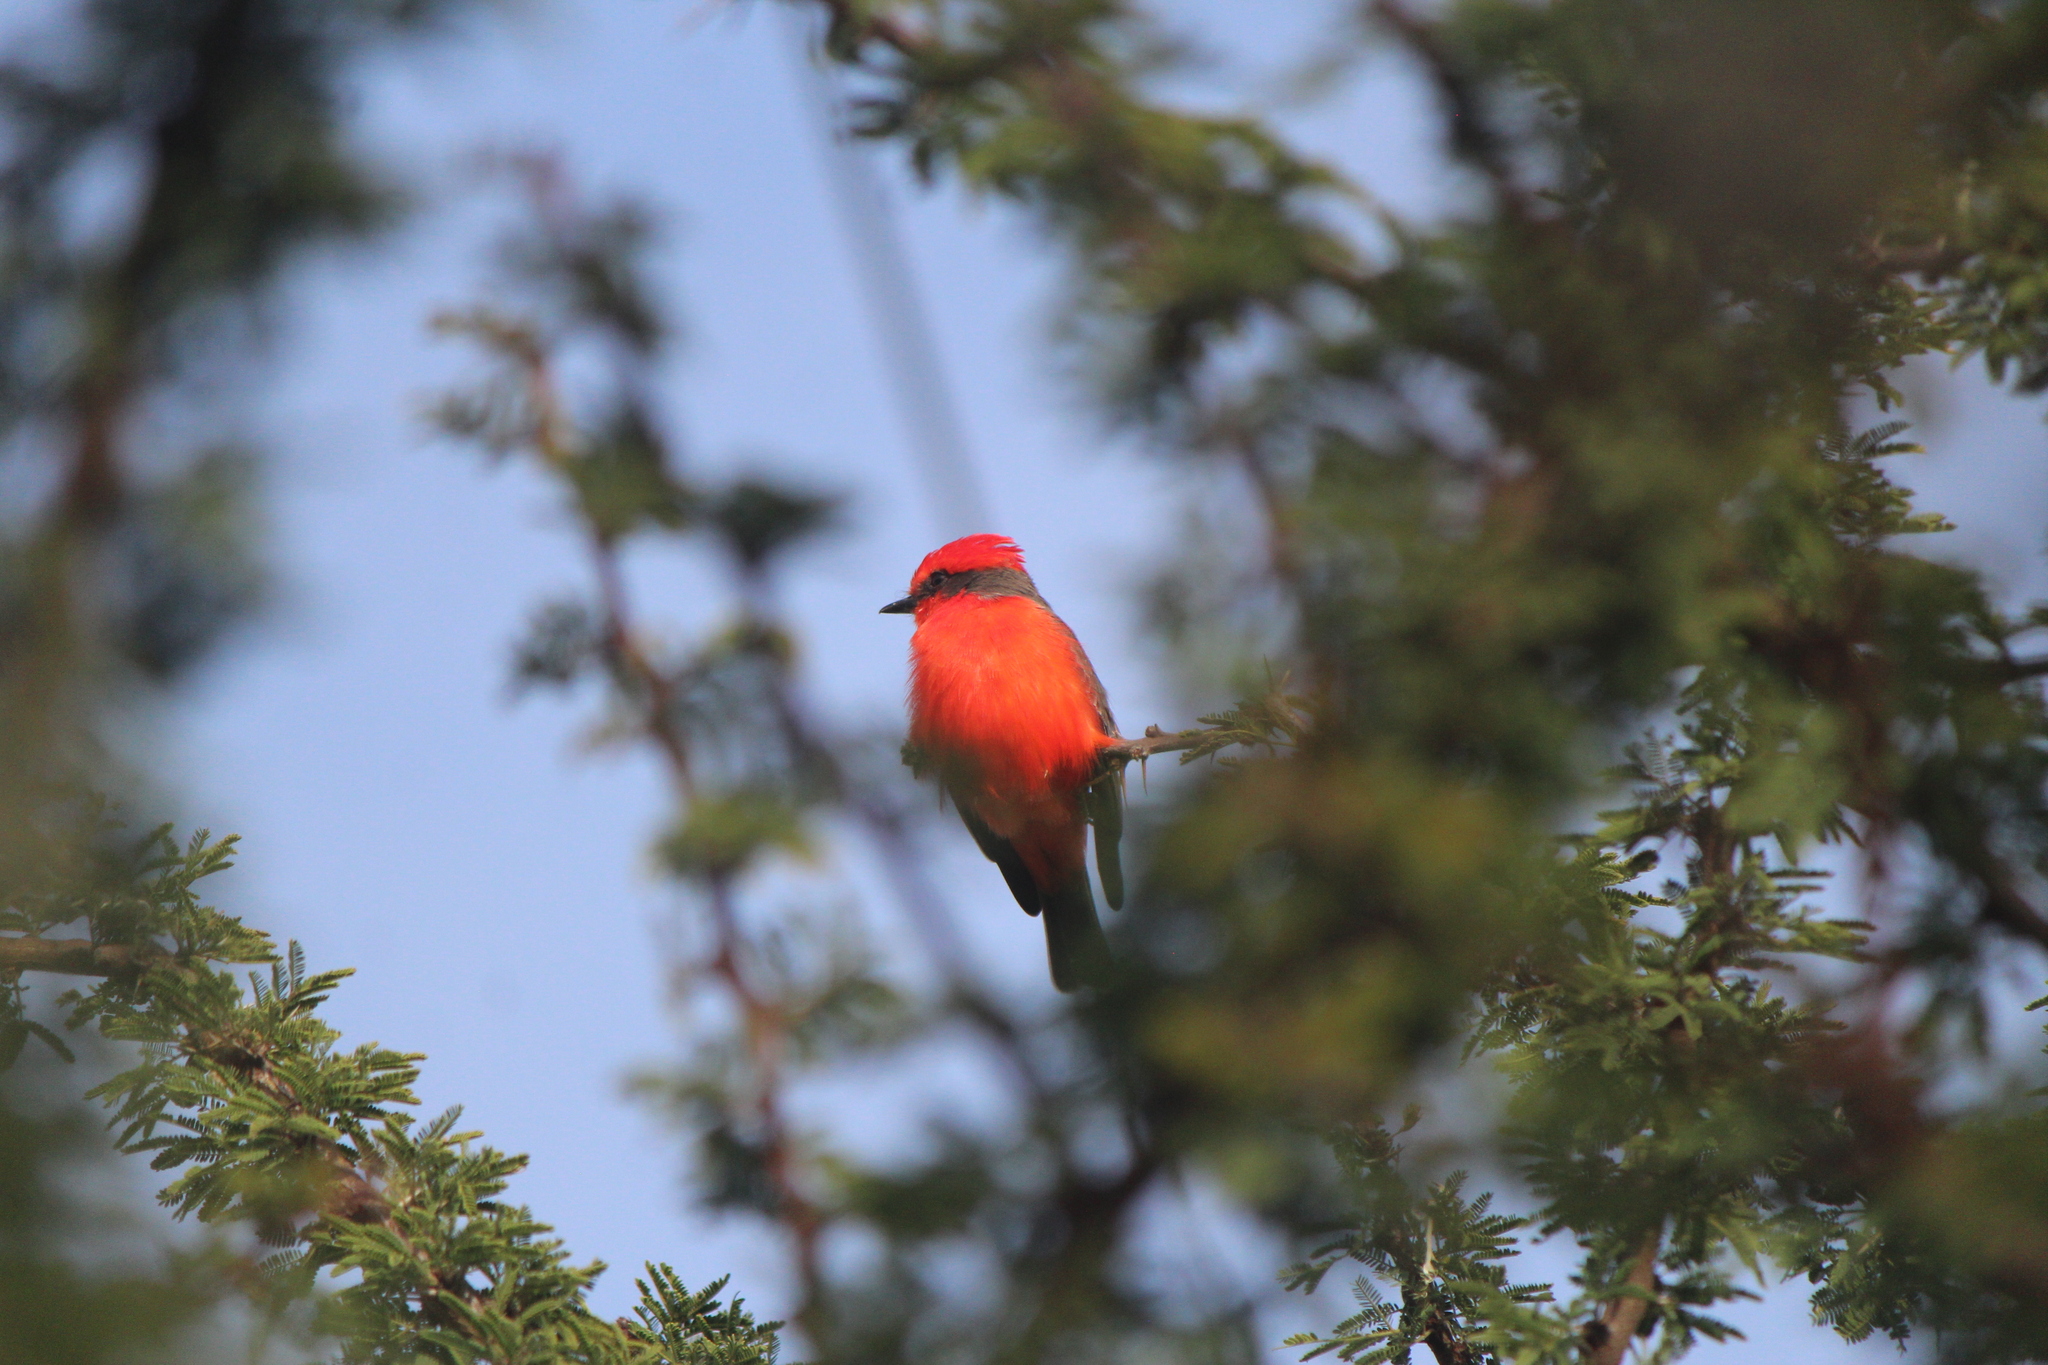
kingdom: Animalia
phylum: Chordata
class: Aves
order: Passeriformes
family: Tyrannidae
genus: Pyrocephalus
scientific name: Pyrocephalus rubinus
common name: Vermilion flycatcher
